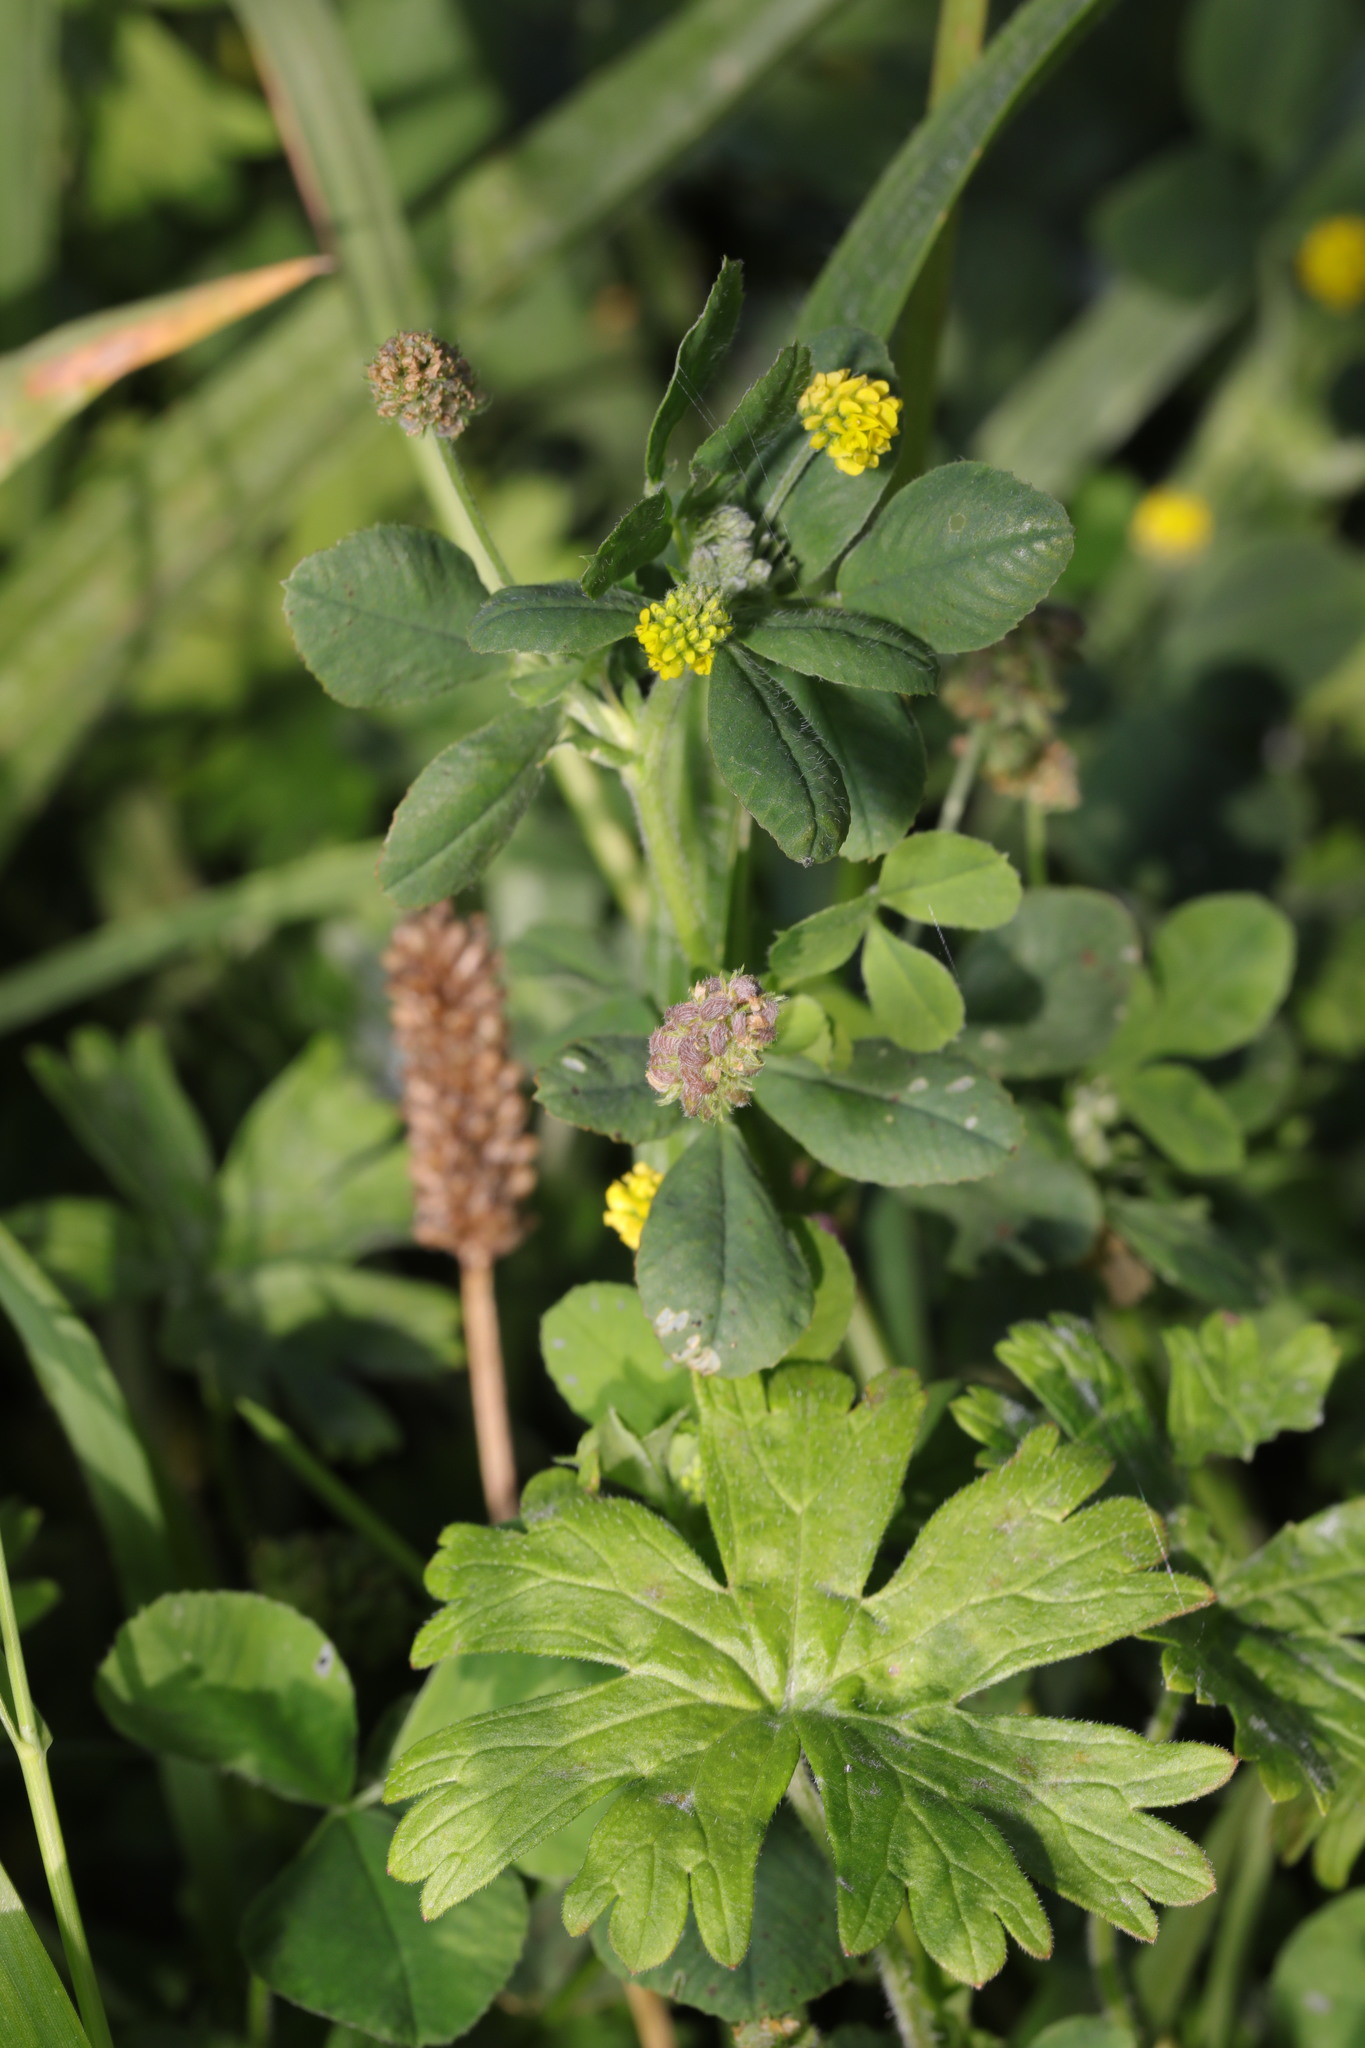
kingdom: Plantae
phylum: Tracheophyta
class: Magnoliopsida
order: Fabales
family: Fabaceae
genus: Medicago
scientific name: Medicago lupulina
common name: Black medick
